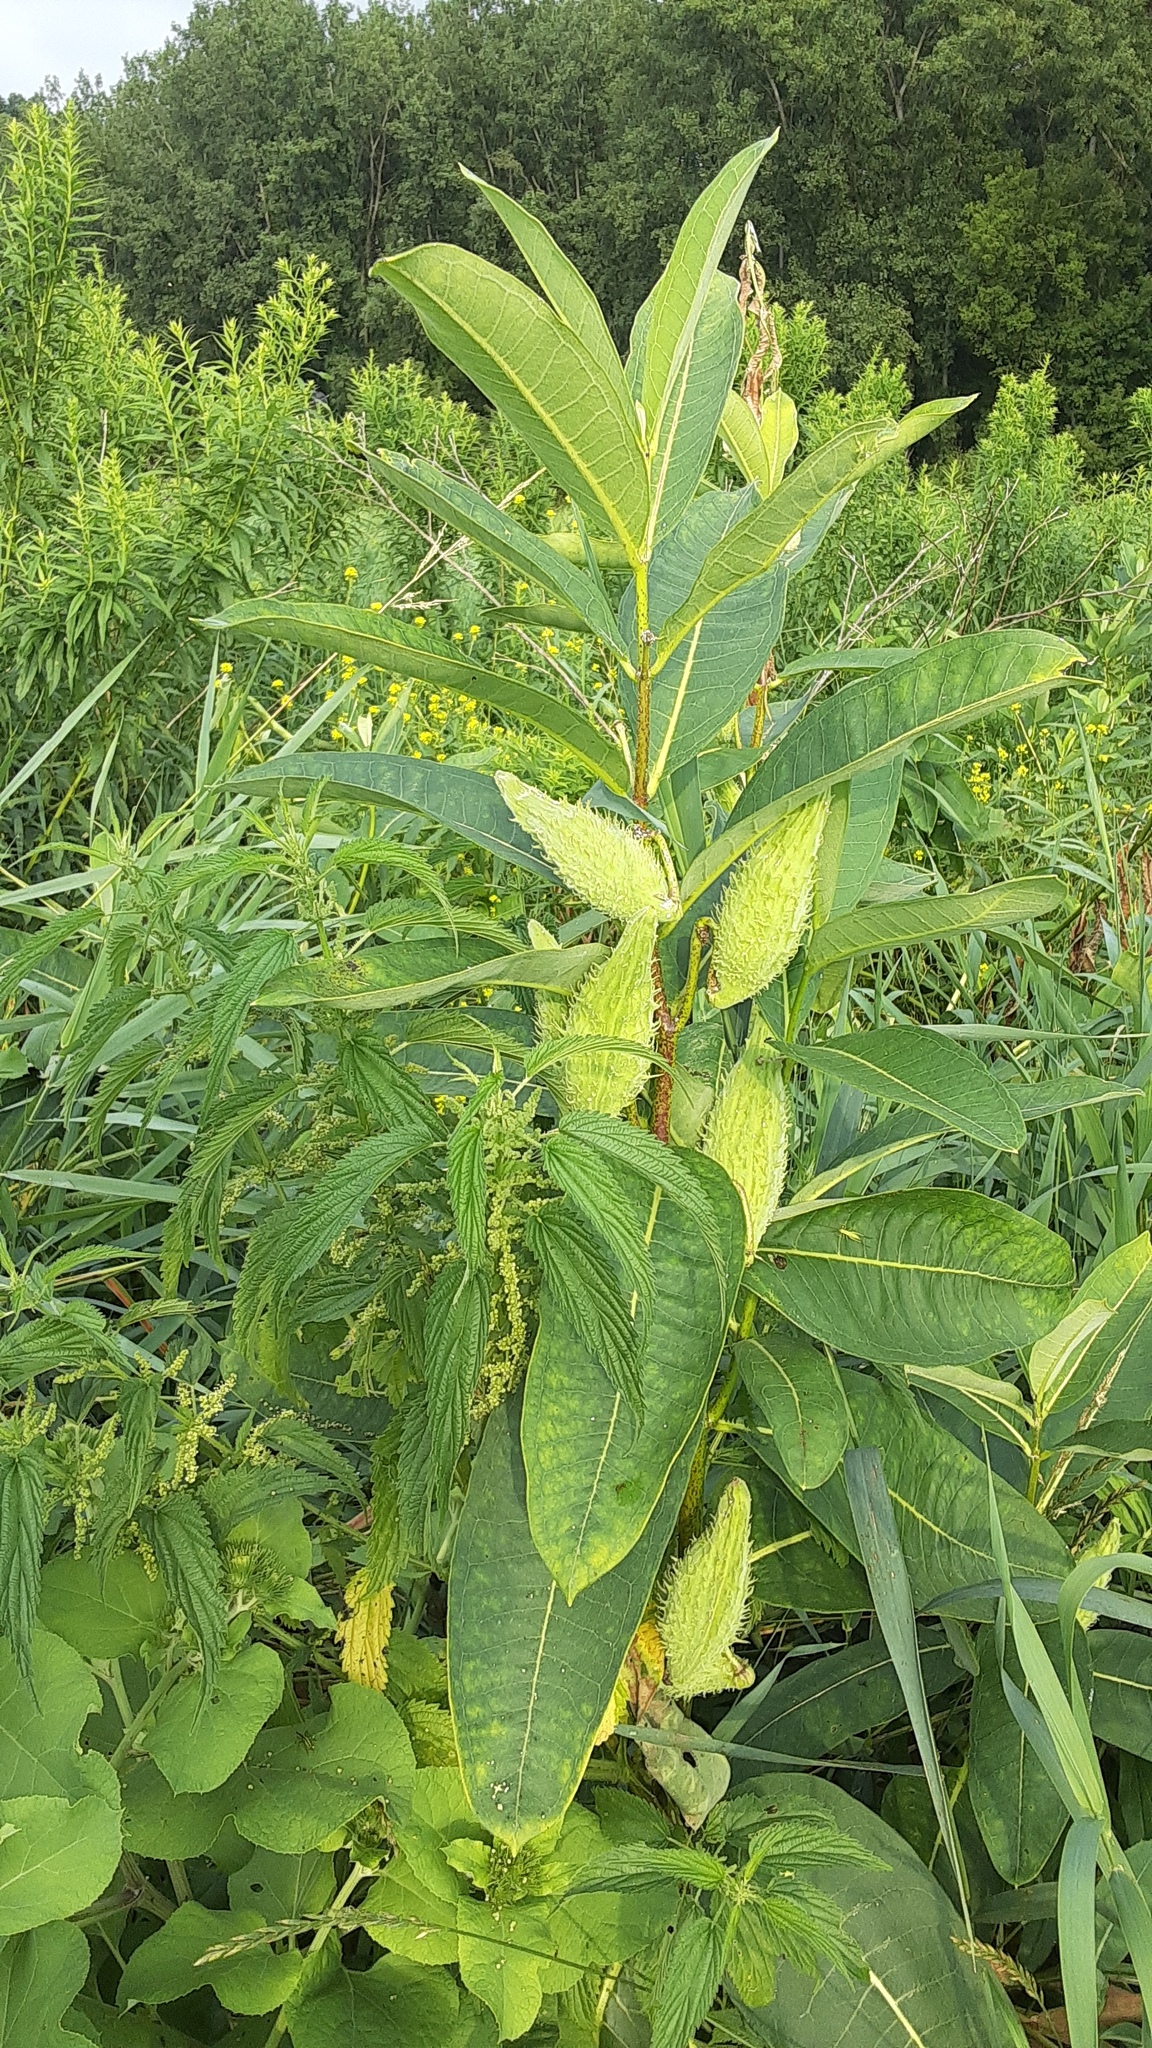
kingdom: Plantae
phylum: Tracheophyta
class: Magnoliopsida
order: Gentianales
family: Apocynaceae
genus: Asclepias
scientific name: Asclepias syriaca
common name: Common milkweed
